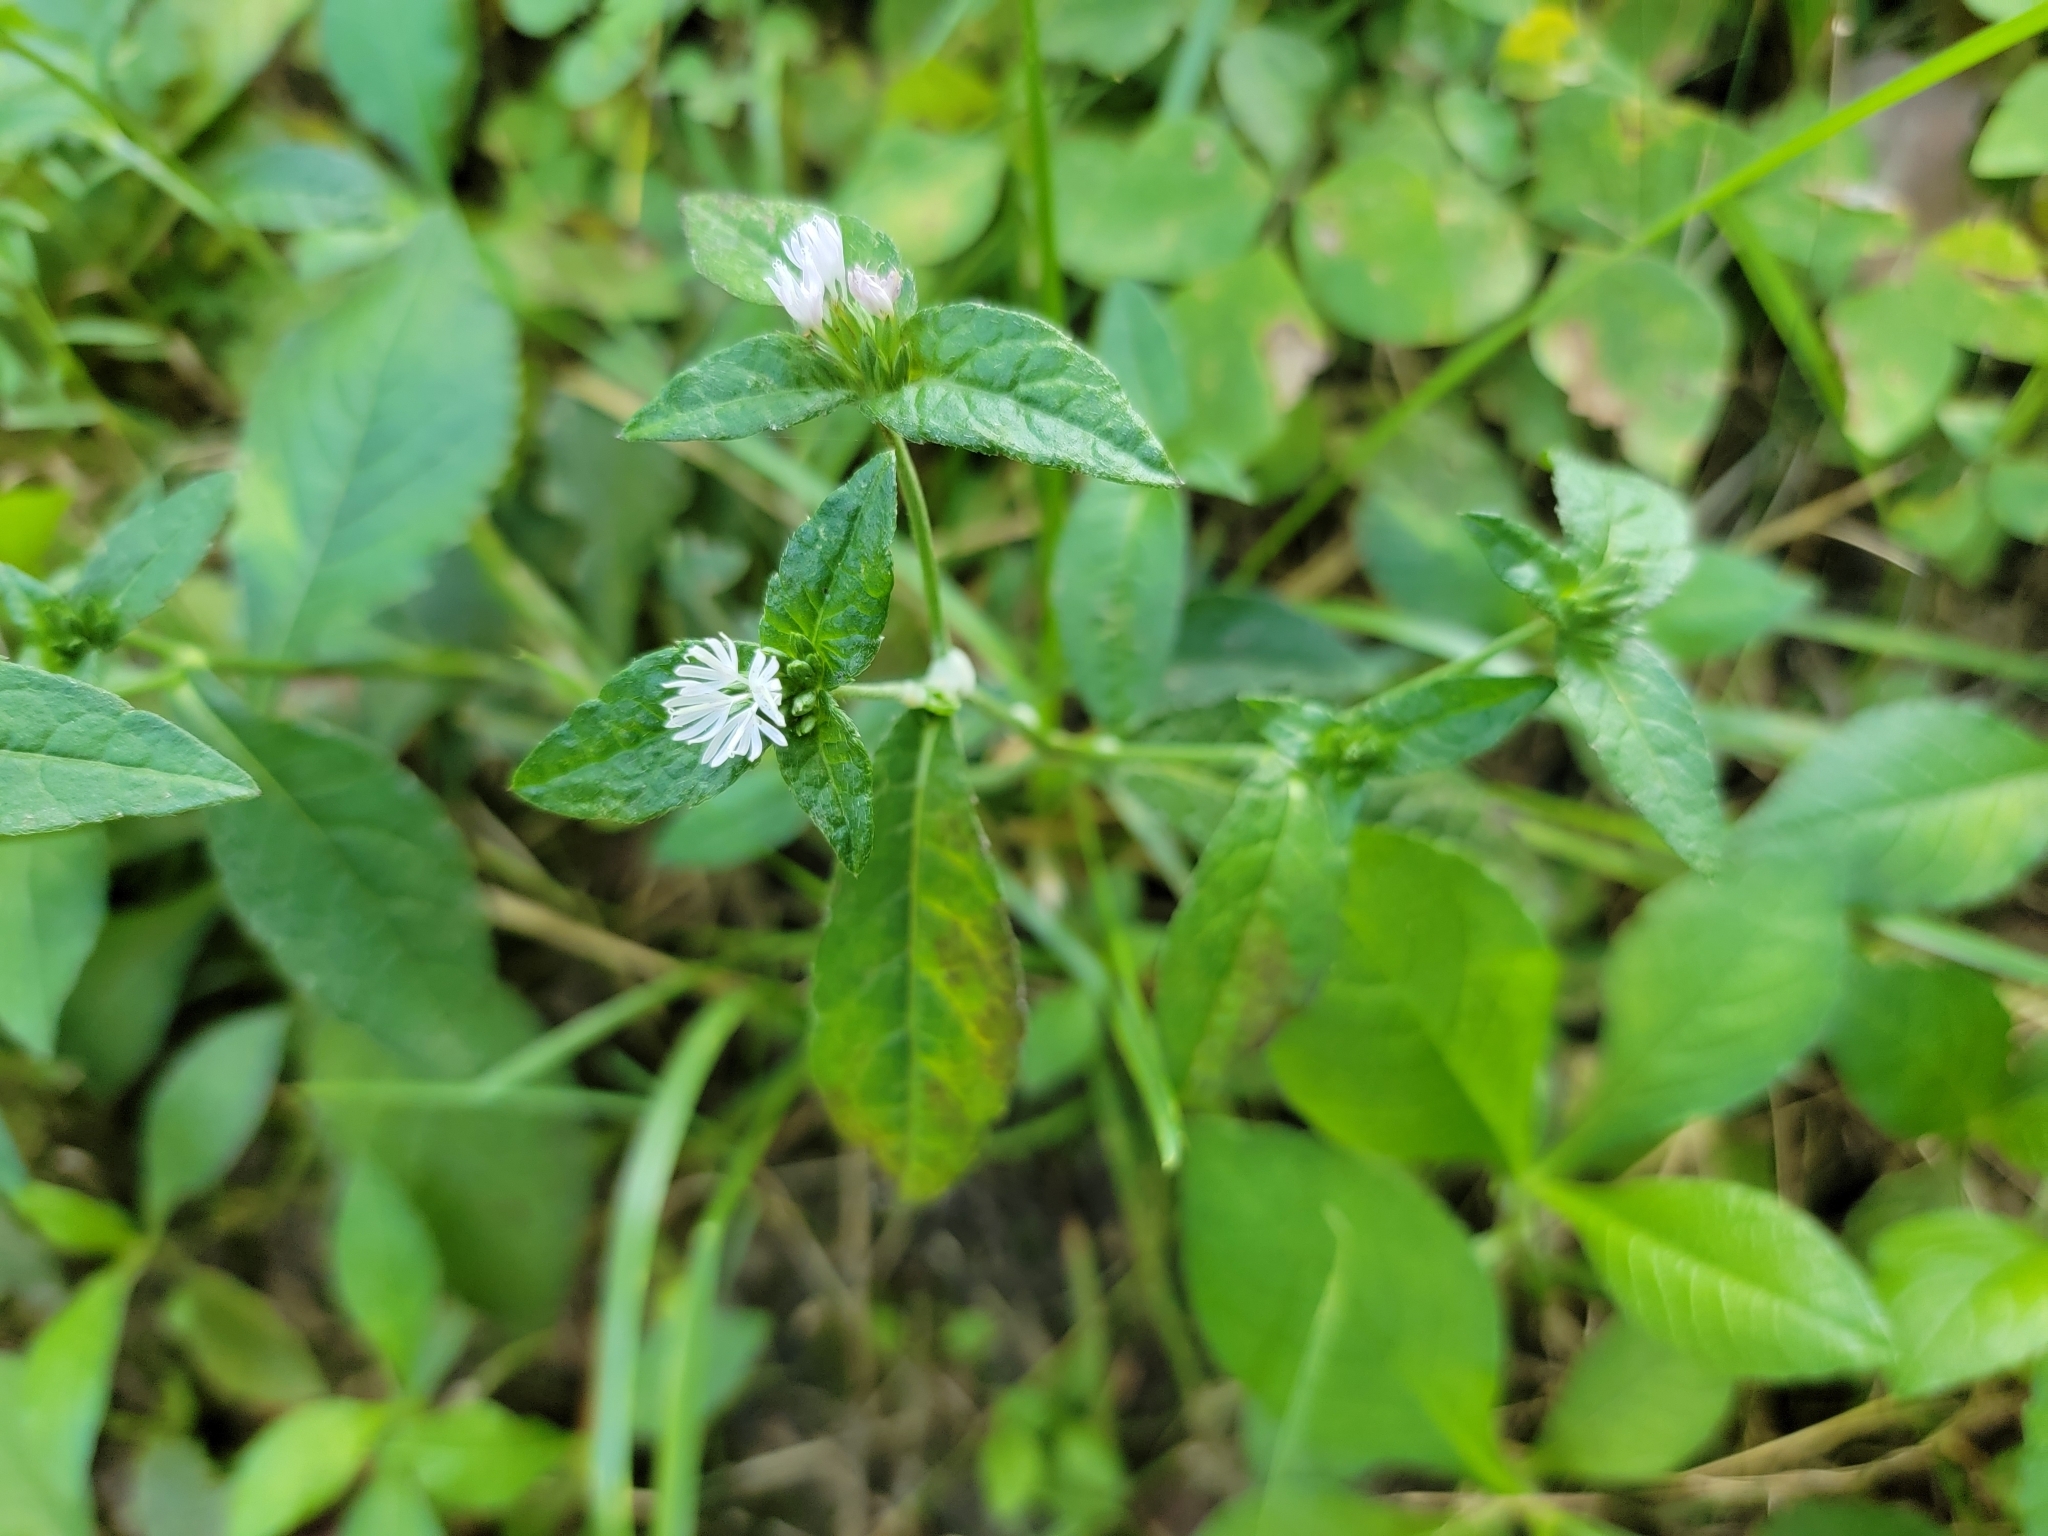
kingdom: Plantae
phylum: Tracheophyta
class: Magnoliopsida
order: Asterales
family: Asteraceae
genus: Elephantopus
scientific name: Elephantopus carolinianus
